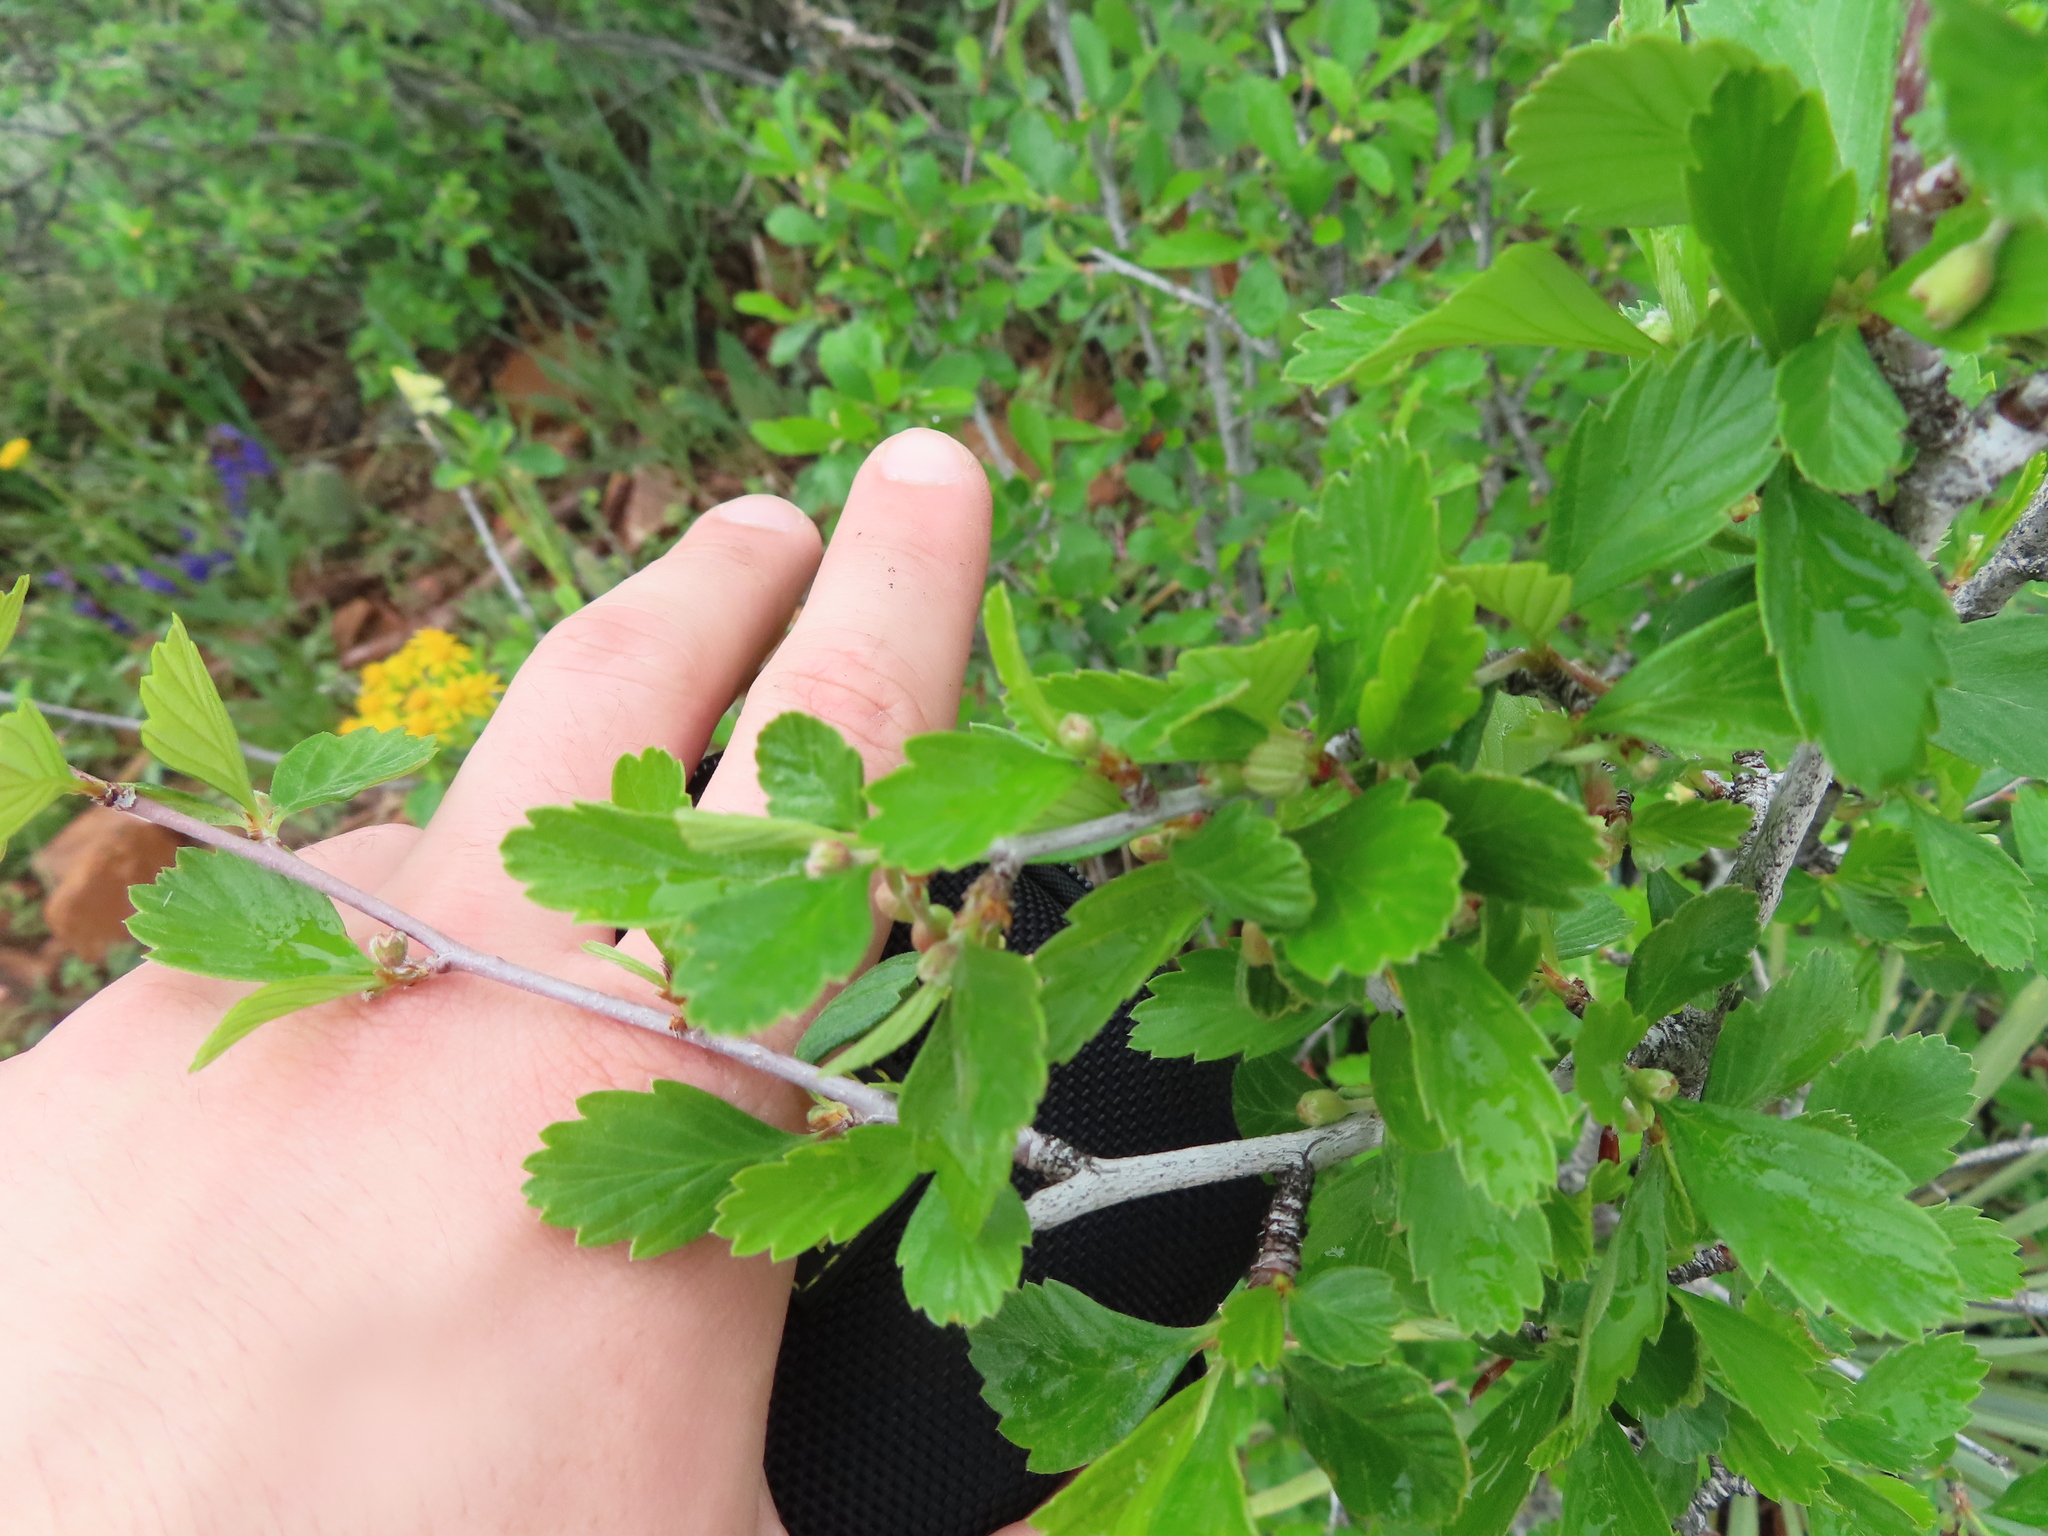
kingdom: Plantae
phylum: Tracheophyta
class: Magnoliopsida
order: Rosales
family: Rosaceae
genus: Cercocarpus
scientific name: Cercocarpus montanus
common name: Alder-leaf cercocarpus
